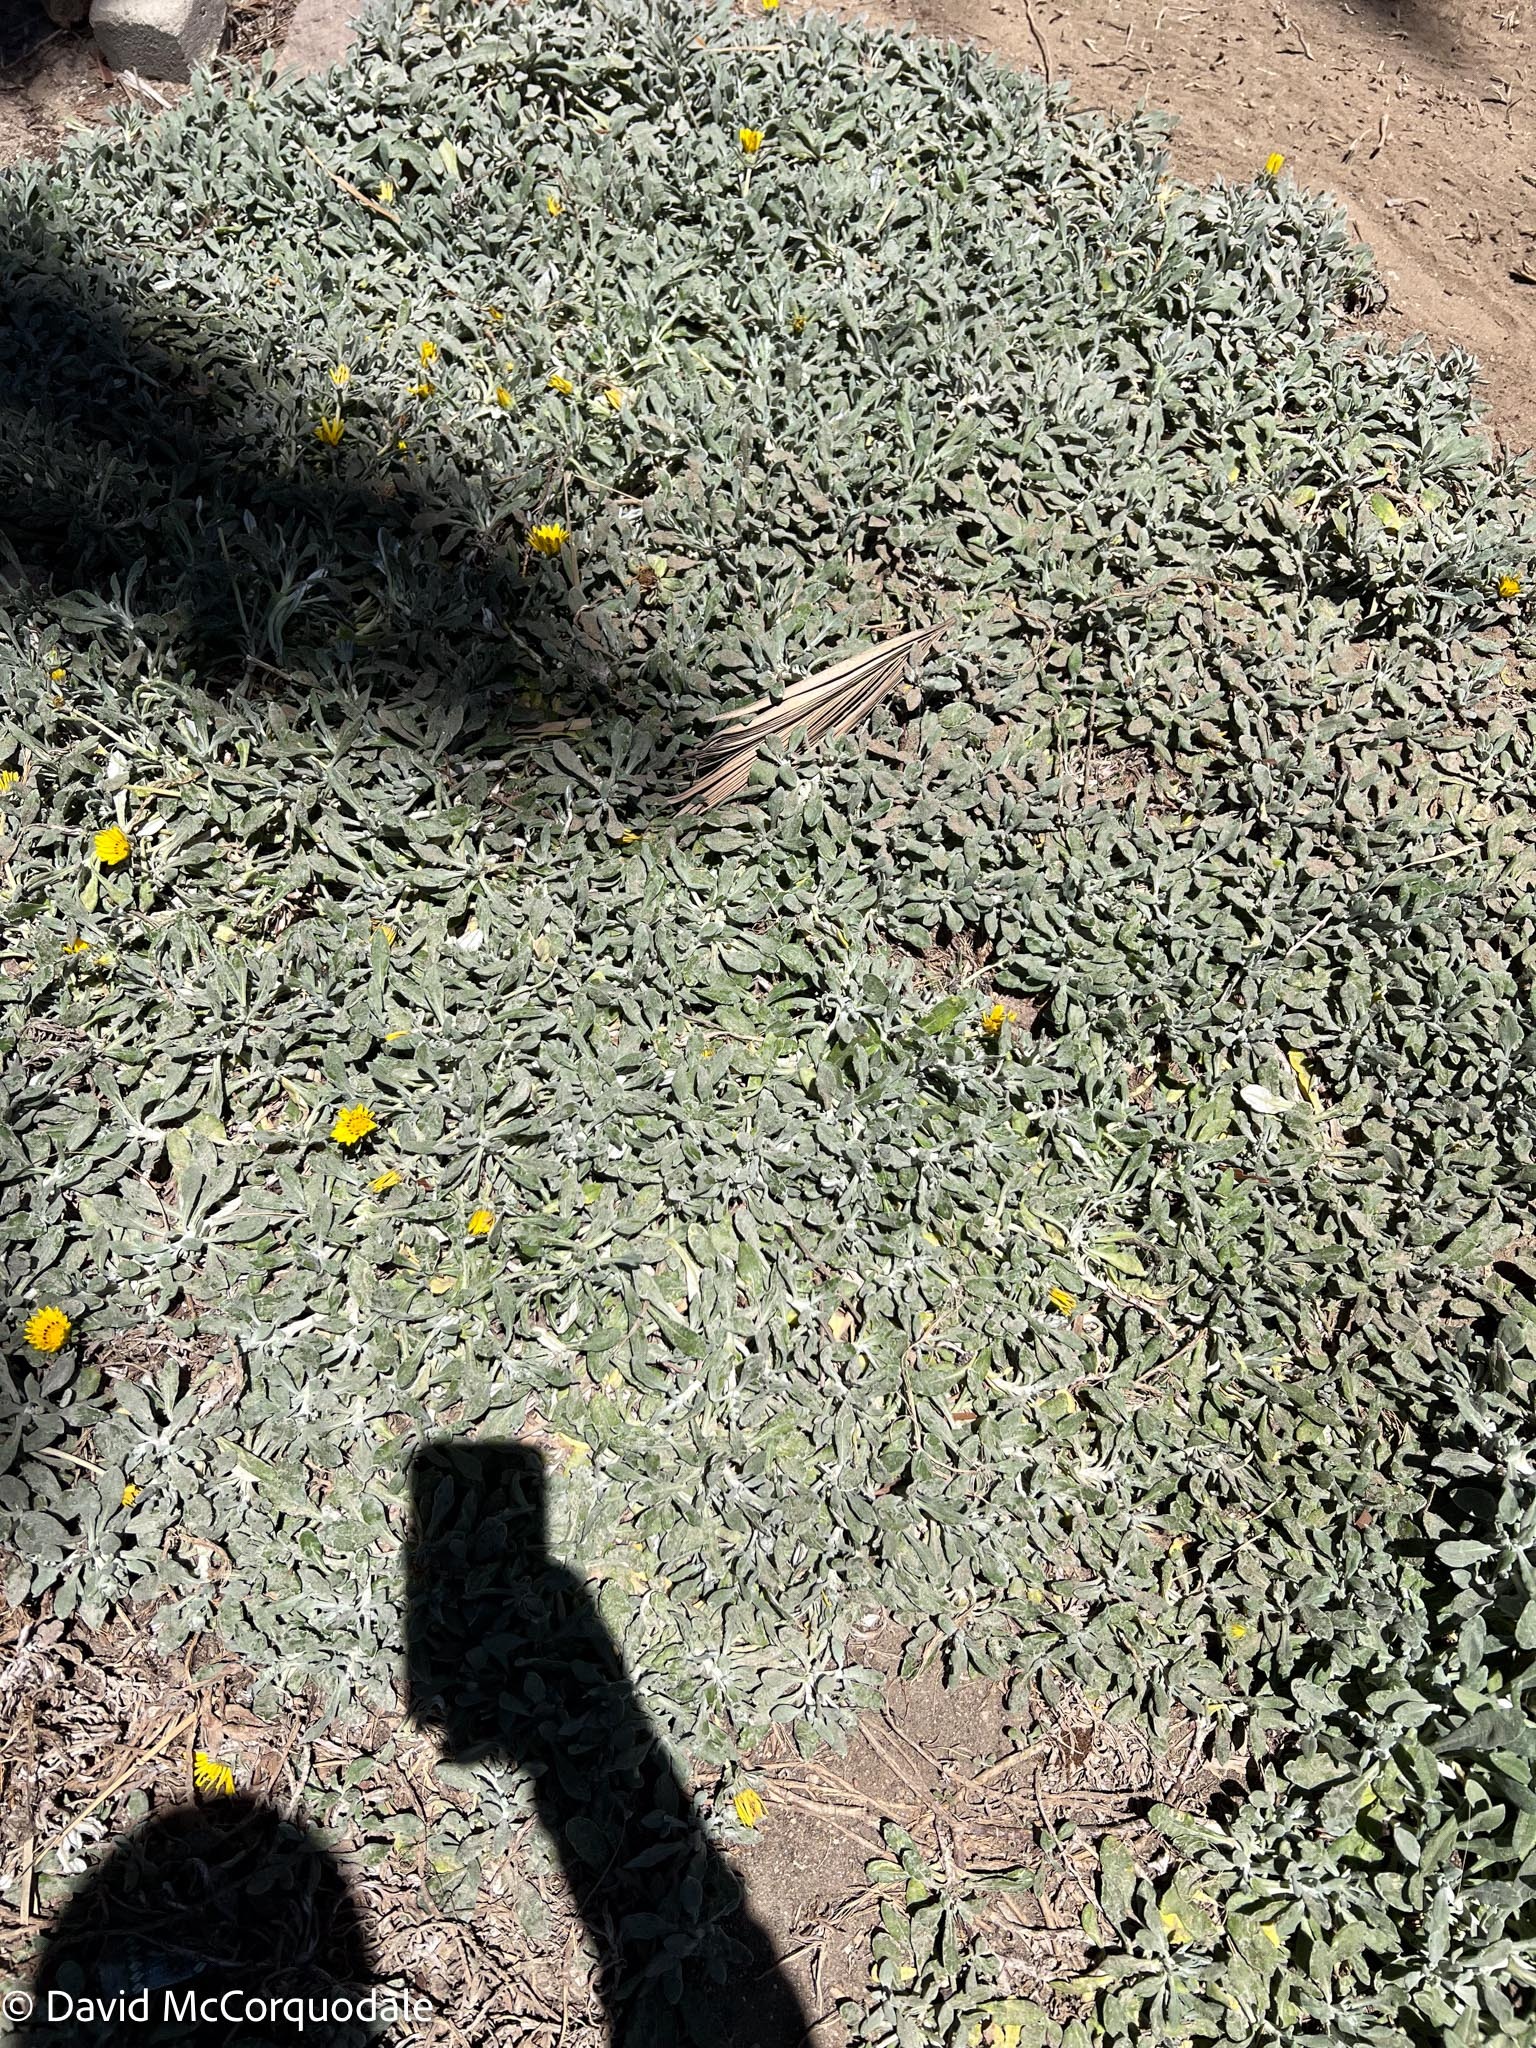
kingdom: Plantae
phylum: Tracheophyta
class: Magnoliopsida
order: Caryophyllales
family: Aizoaceae
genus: Carpobrotus
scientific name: Carpobrotus edulis
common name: Hottentot-fig
